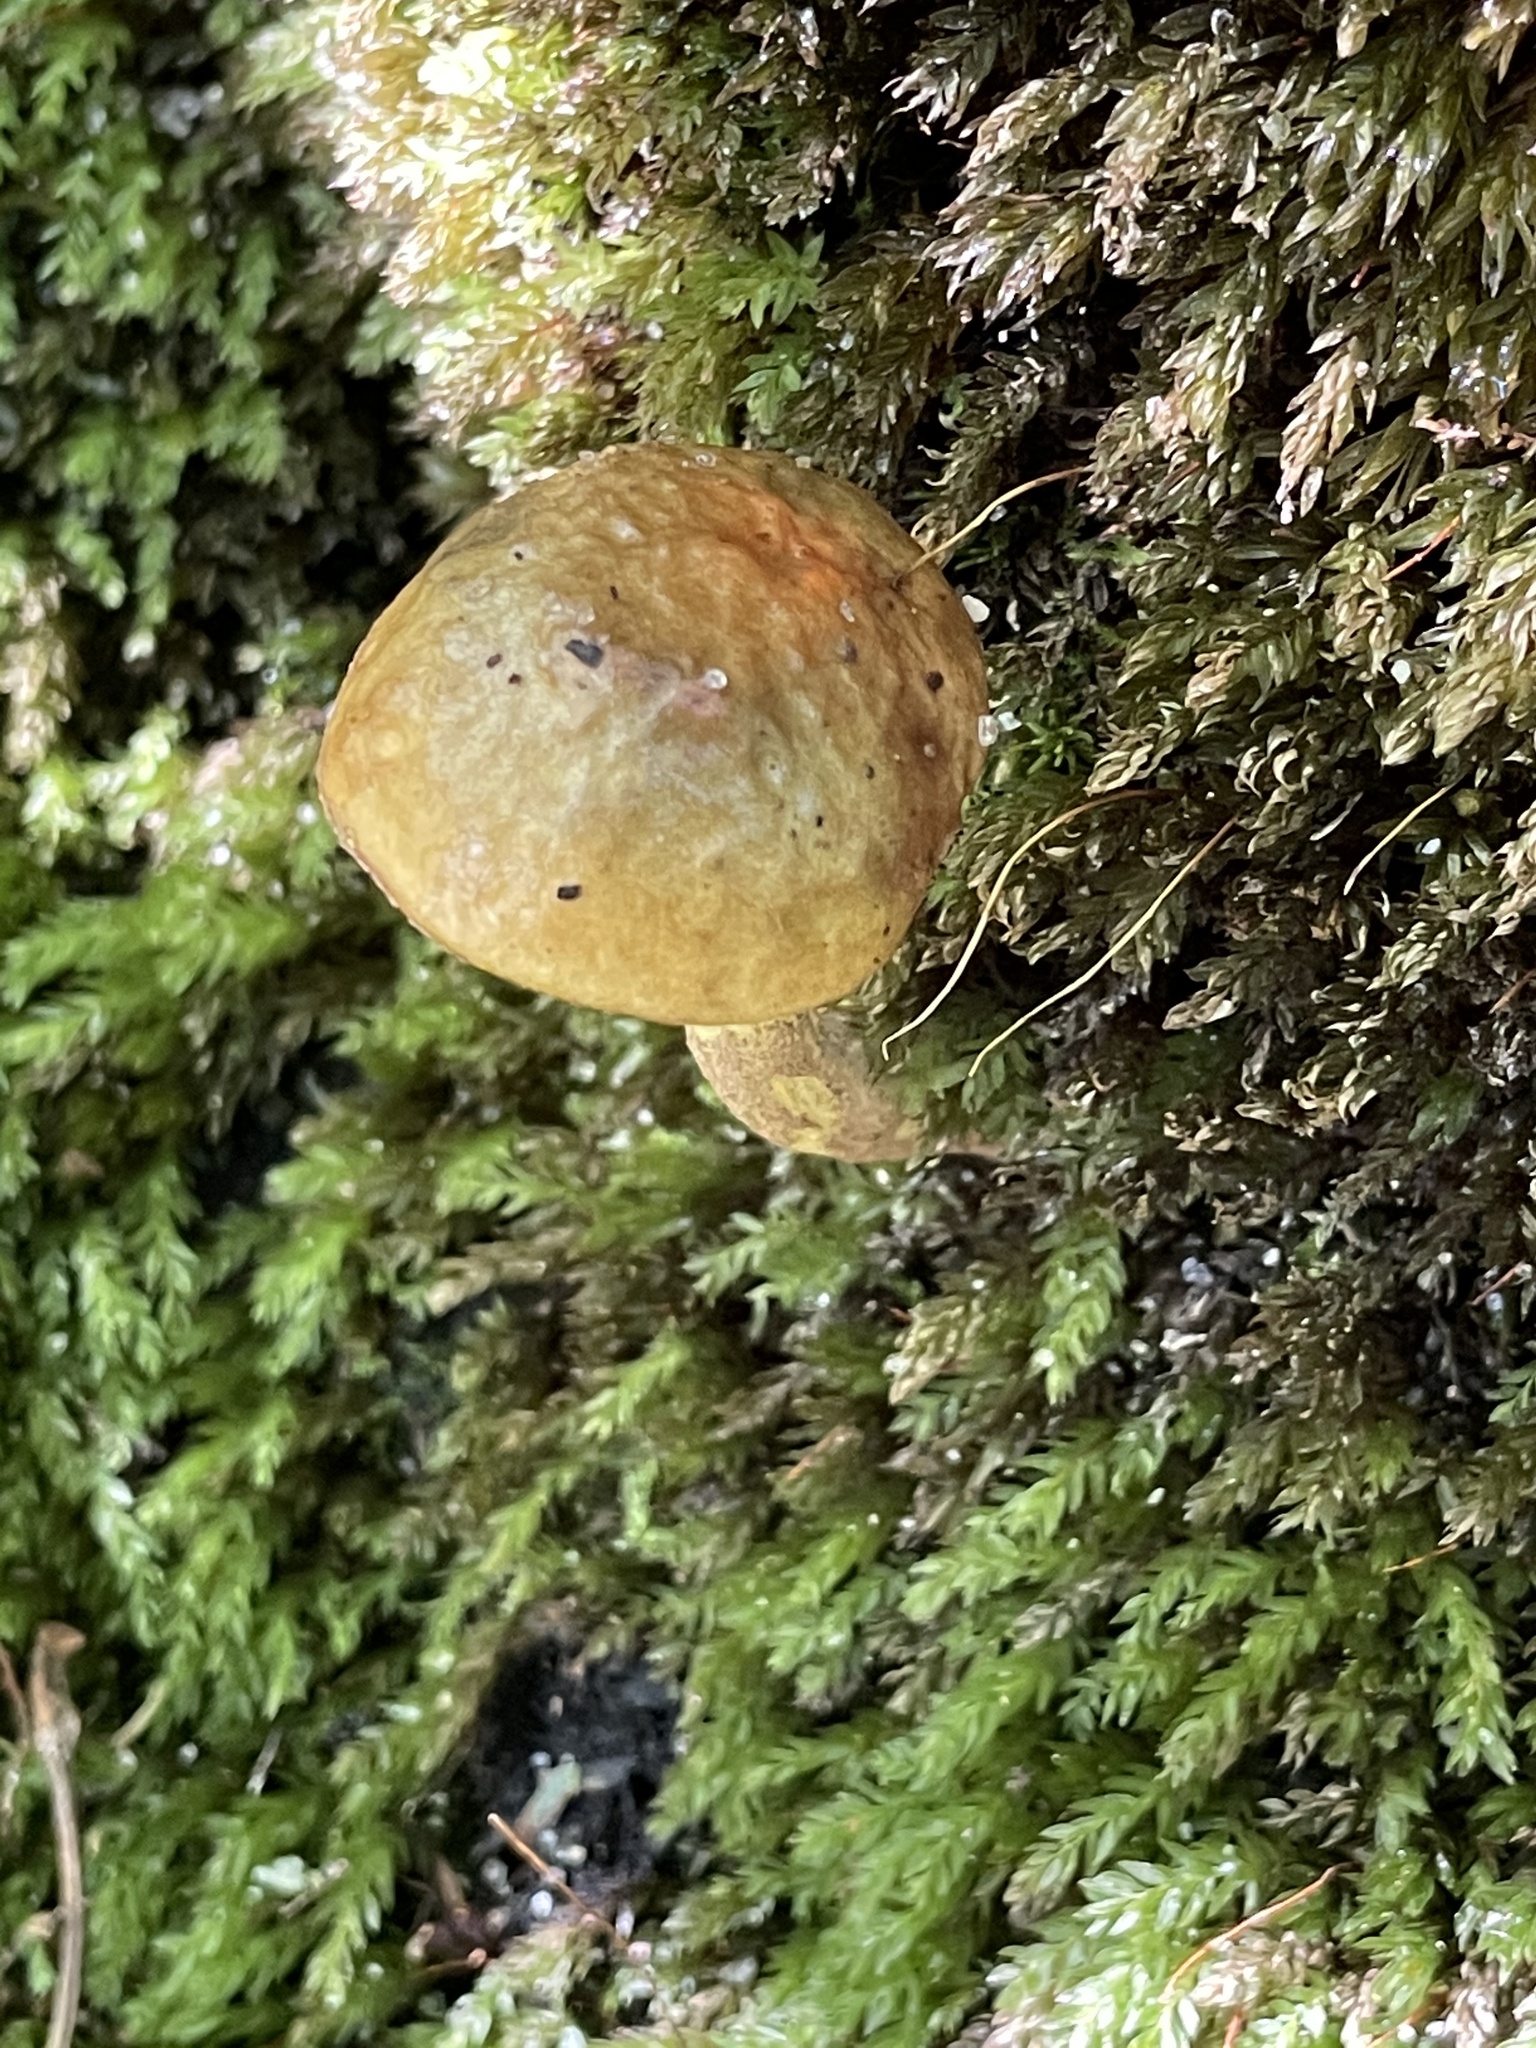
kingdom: Fungi
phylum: Basidiomycota
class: Agaricomycetes
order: Boletales
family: Boletaceae
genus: Leccinum
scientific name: Leccinum longicurvipes
